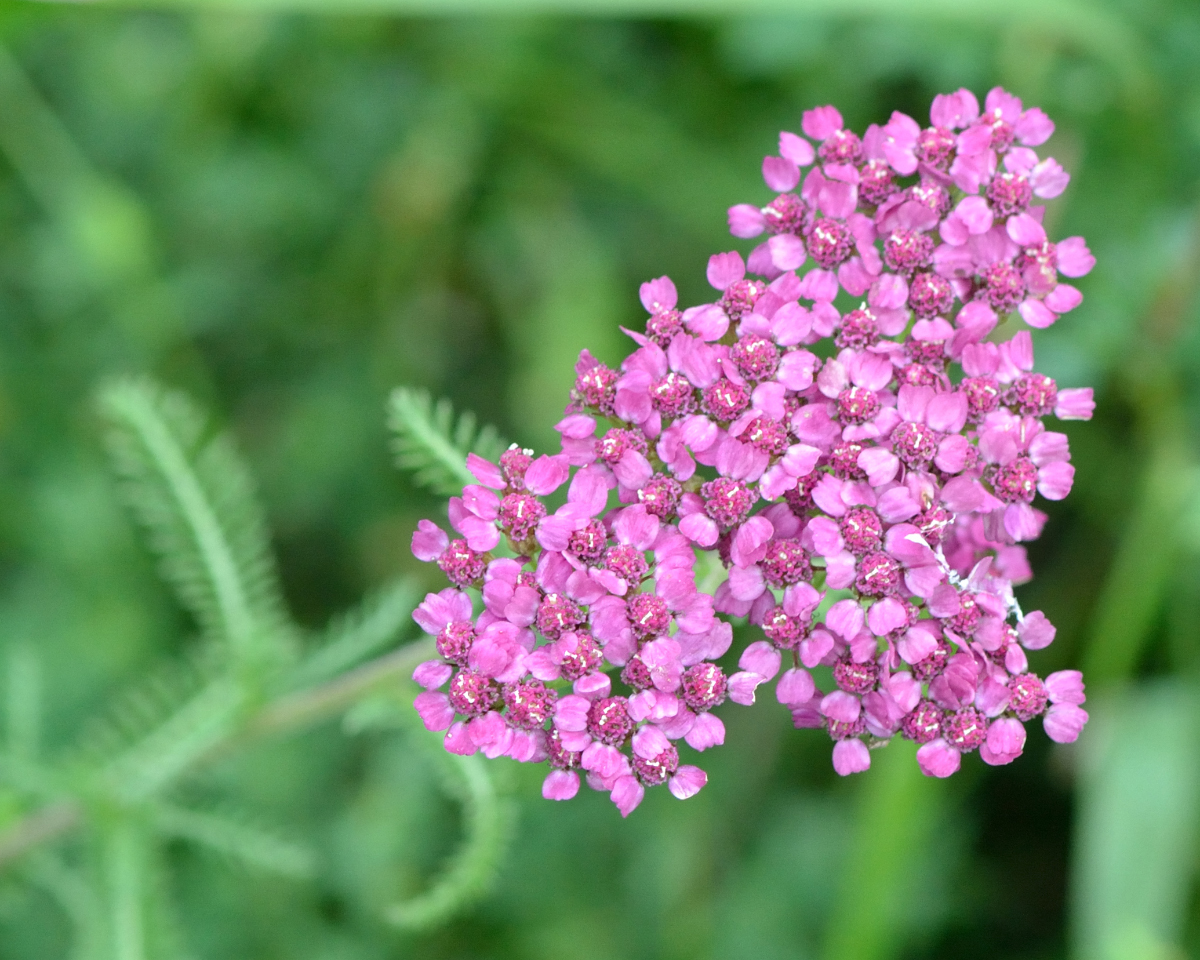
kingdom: Plantae
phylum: Tracheophyta
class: Magnoliopsida
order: Asterales
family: Asteraceae
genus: Achillea
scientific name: Achillea millefolium
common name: Yarrow
